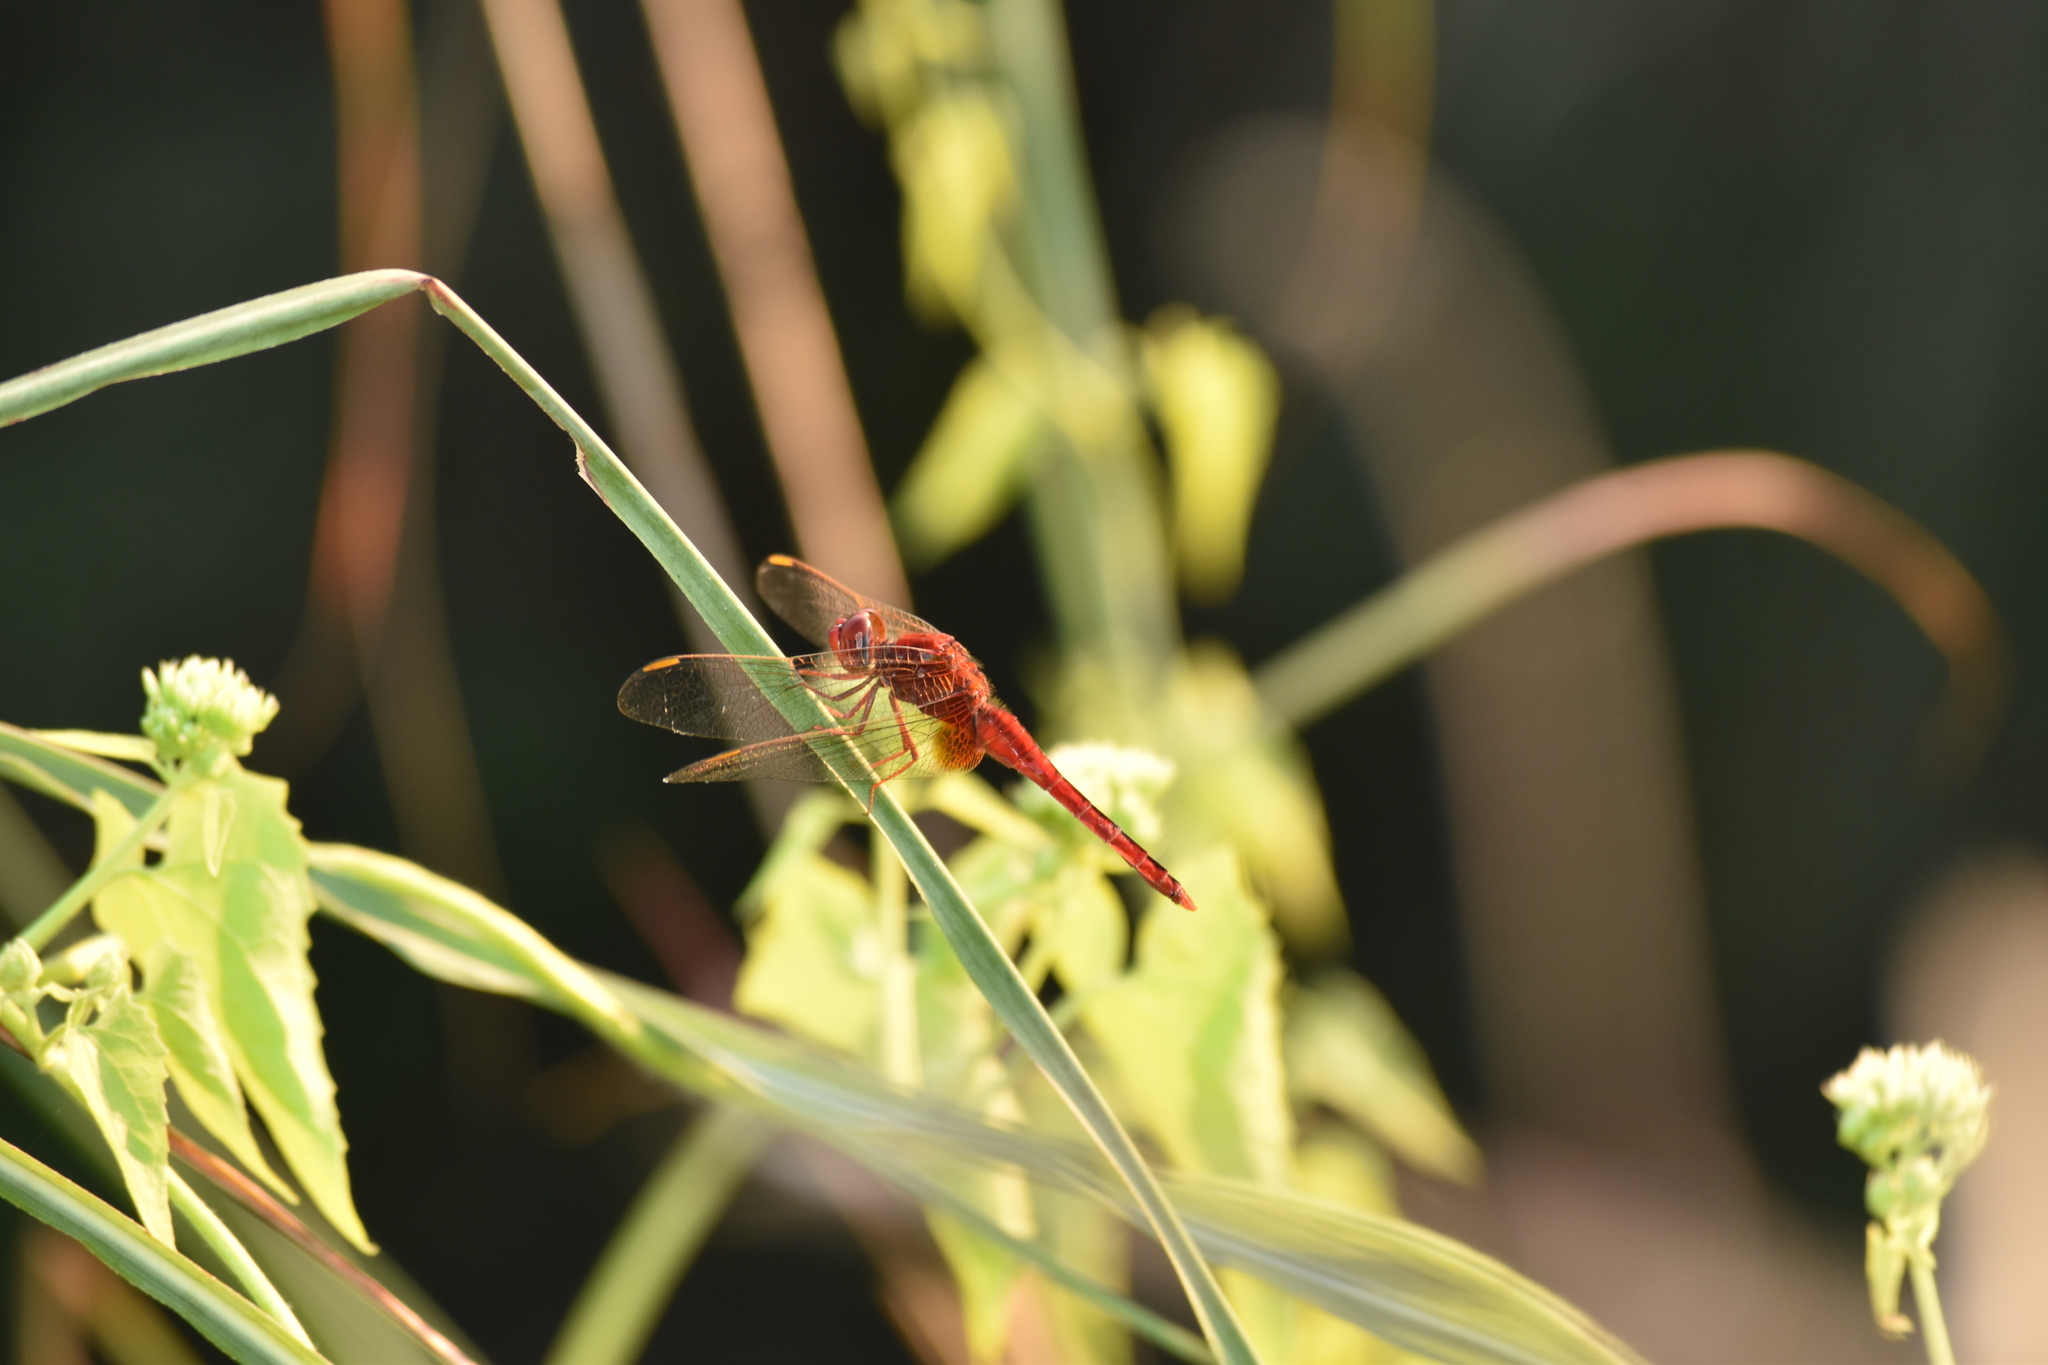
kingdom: Animalia
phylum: Arthropoda
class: Insecta
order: Odonata
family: Libellulidae
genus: Crocothemis
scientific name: Crocothemis servilia
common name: Scarlet skimmer
